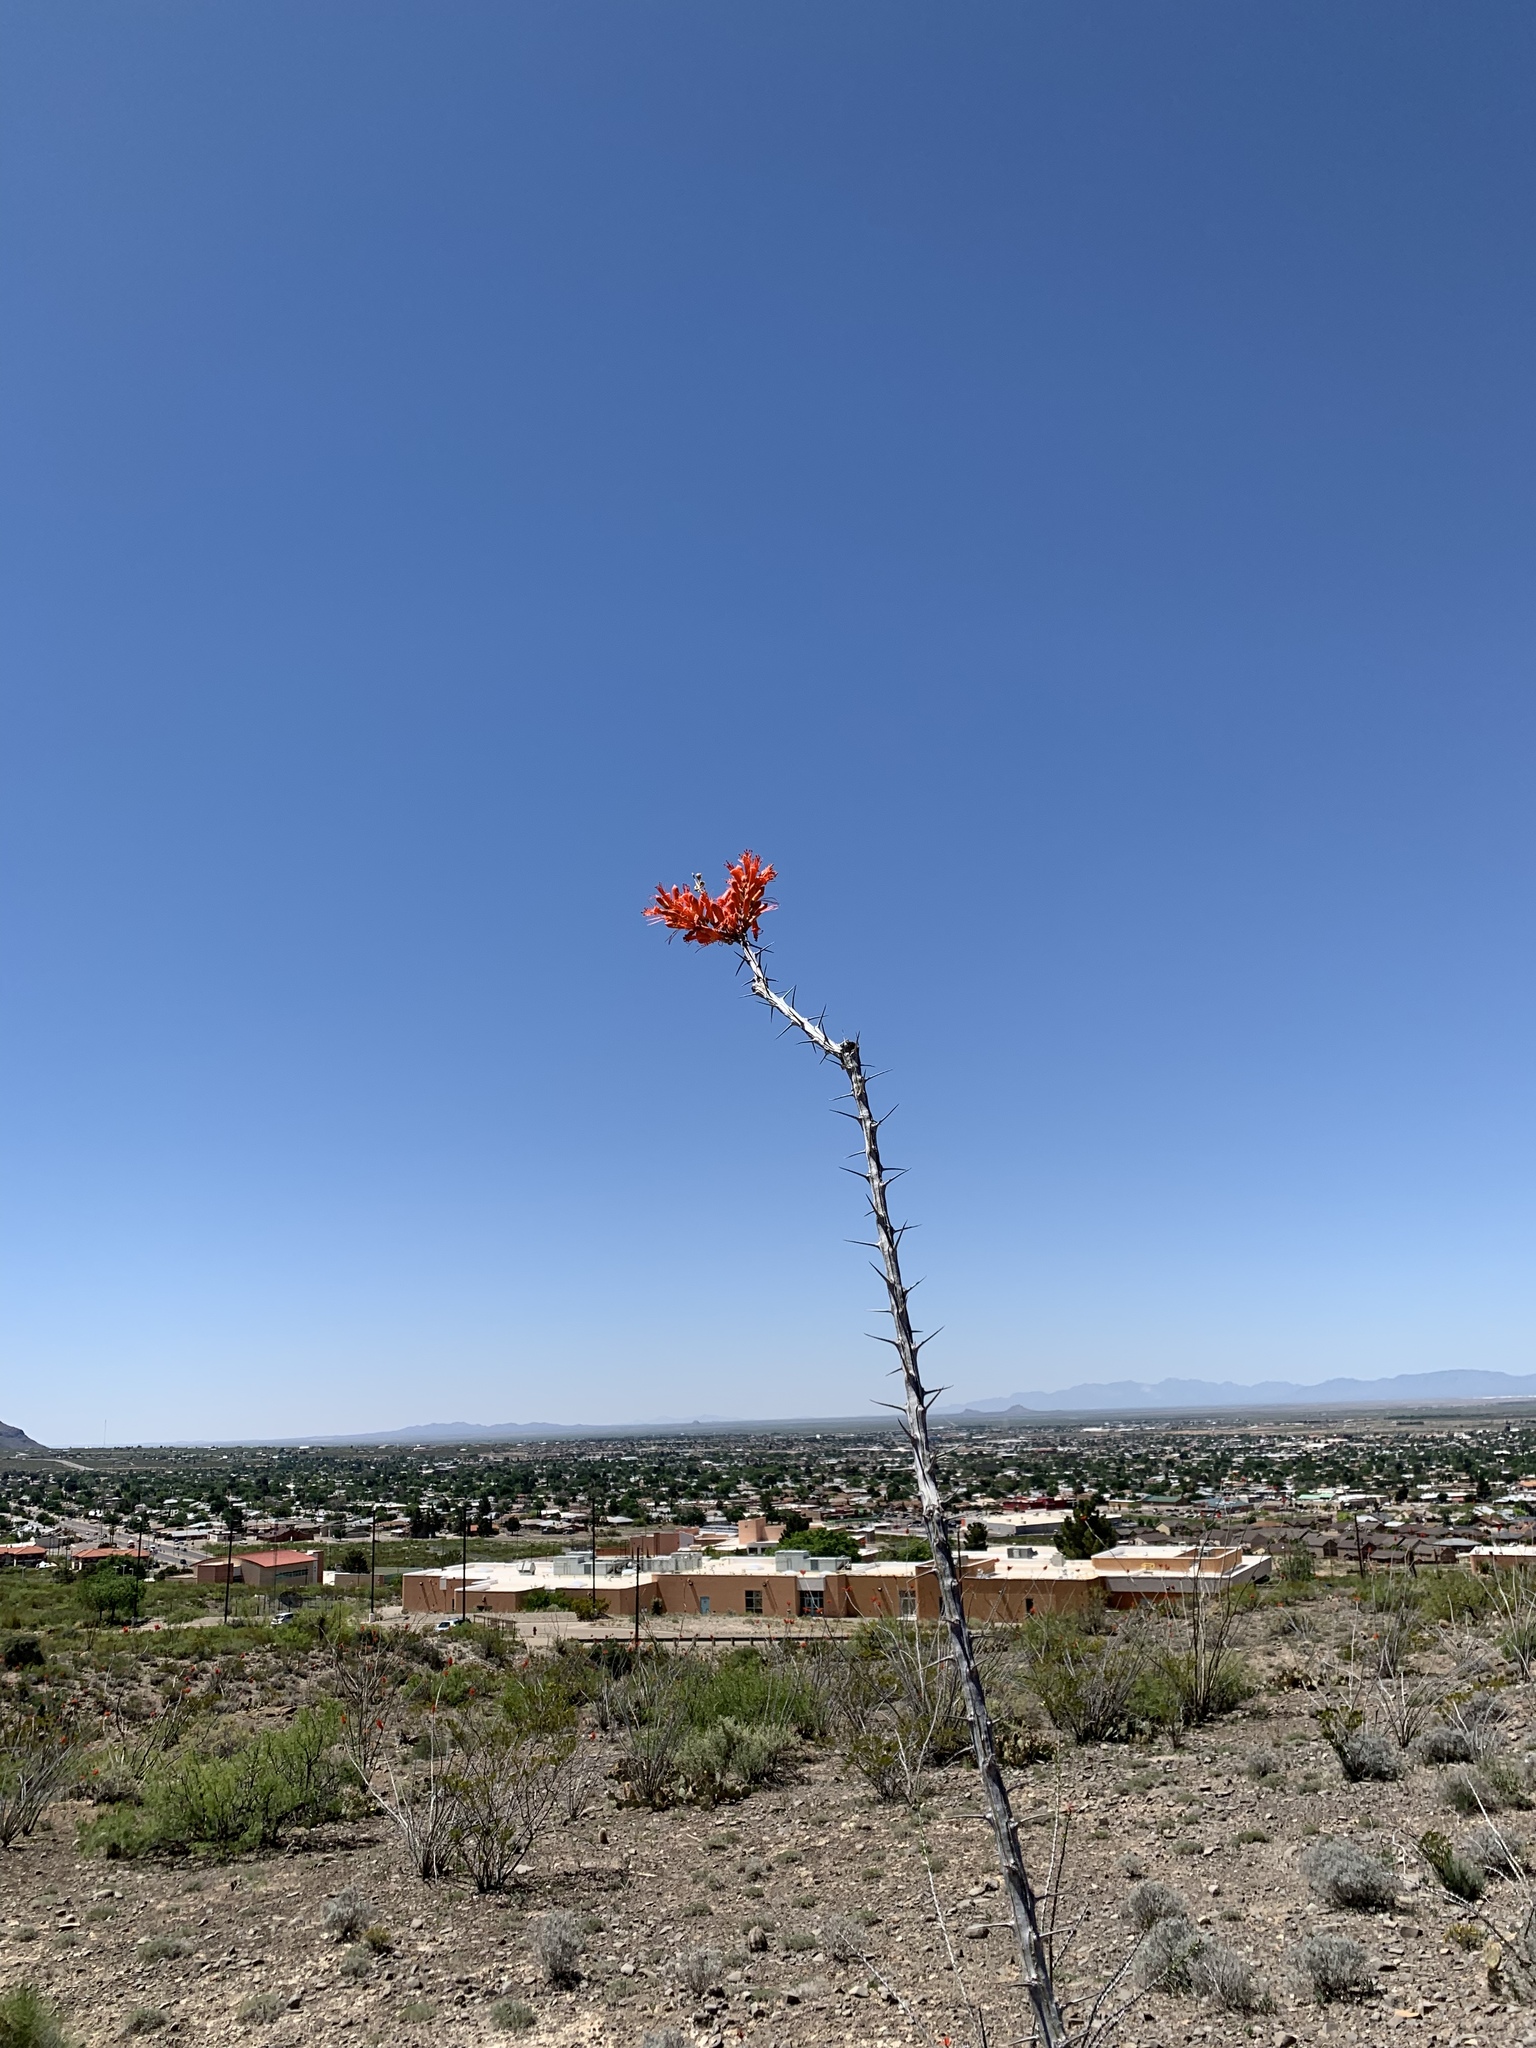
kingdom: Plantae
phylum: Tracheophyta
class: Magnoliopsida
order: Ericales
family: Fouquieriaceae
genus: Fouquieria
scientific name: Fouquieria splendens
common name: Vine-cactus
